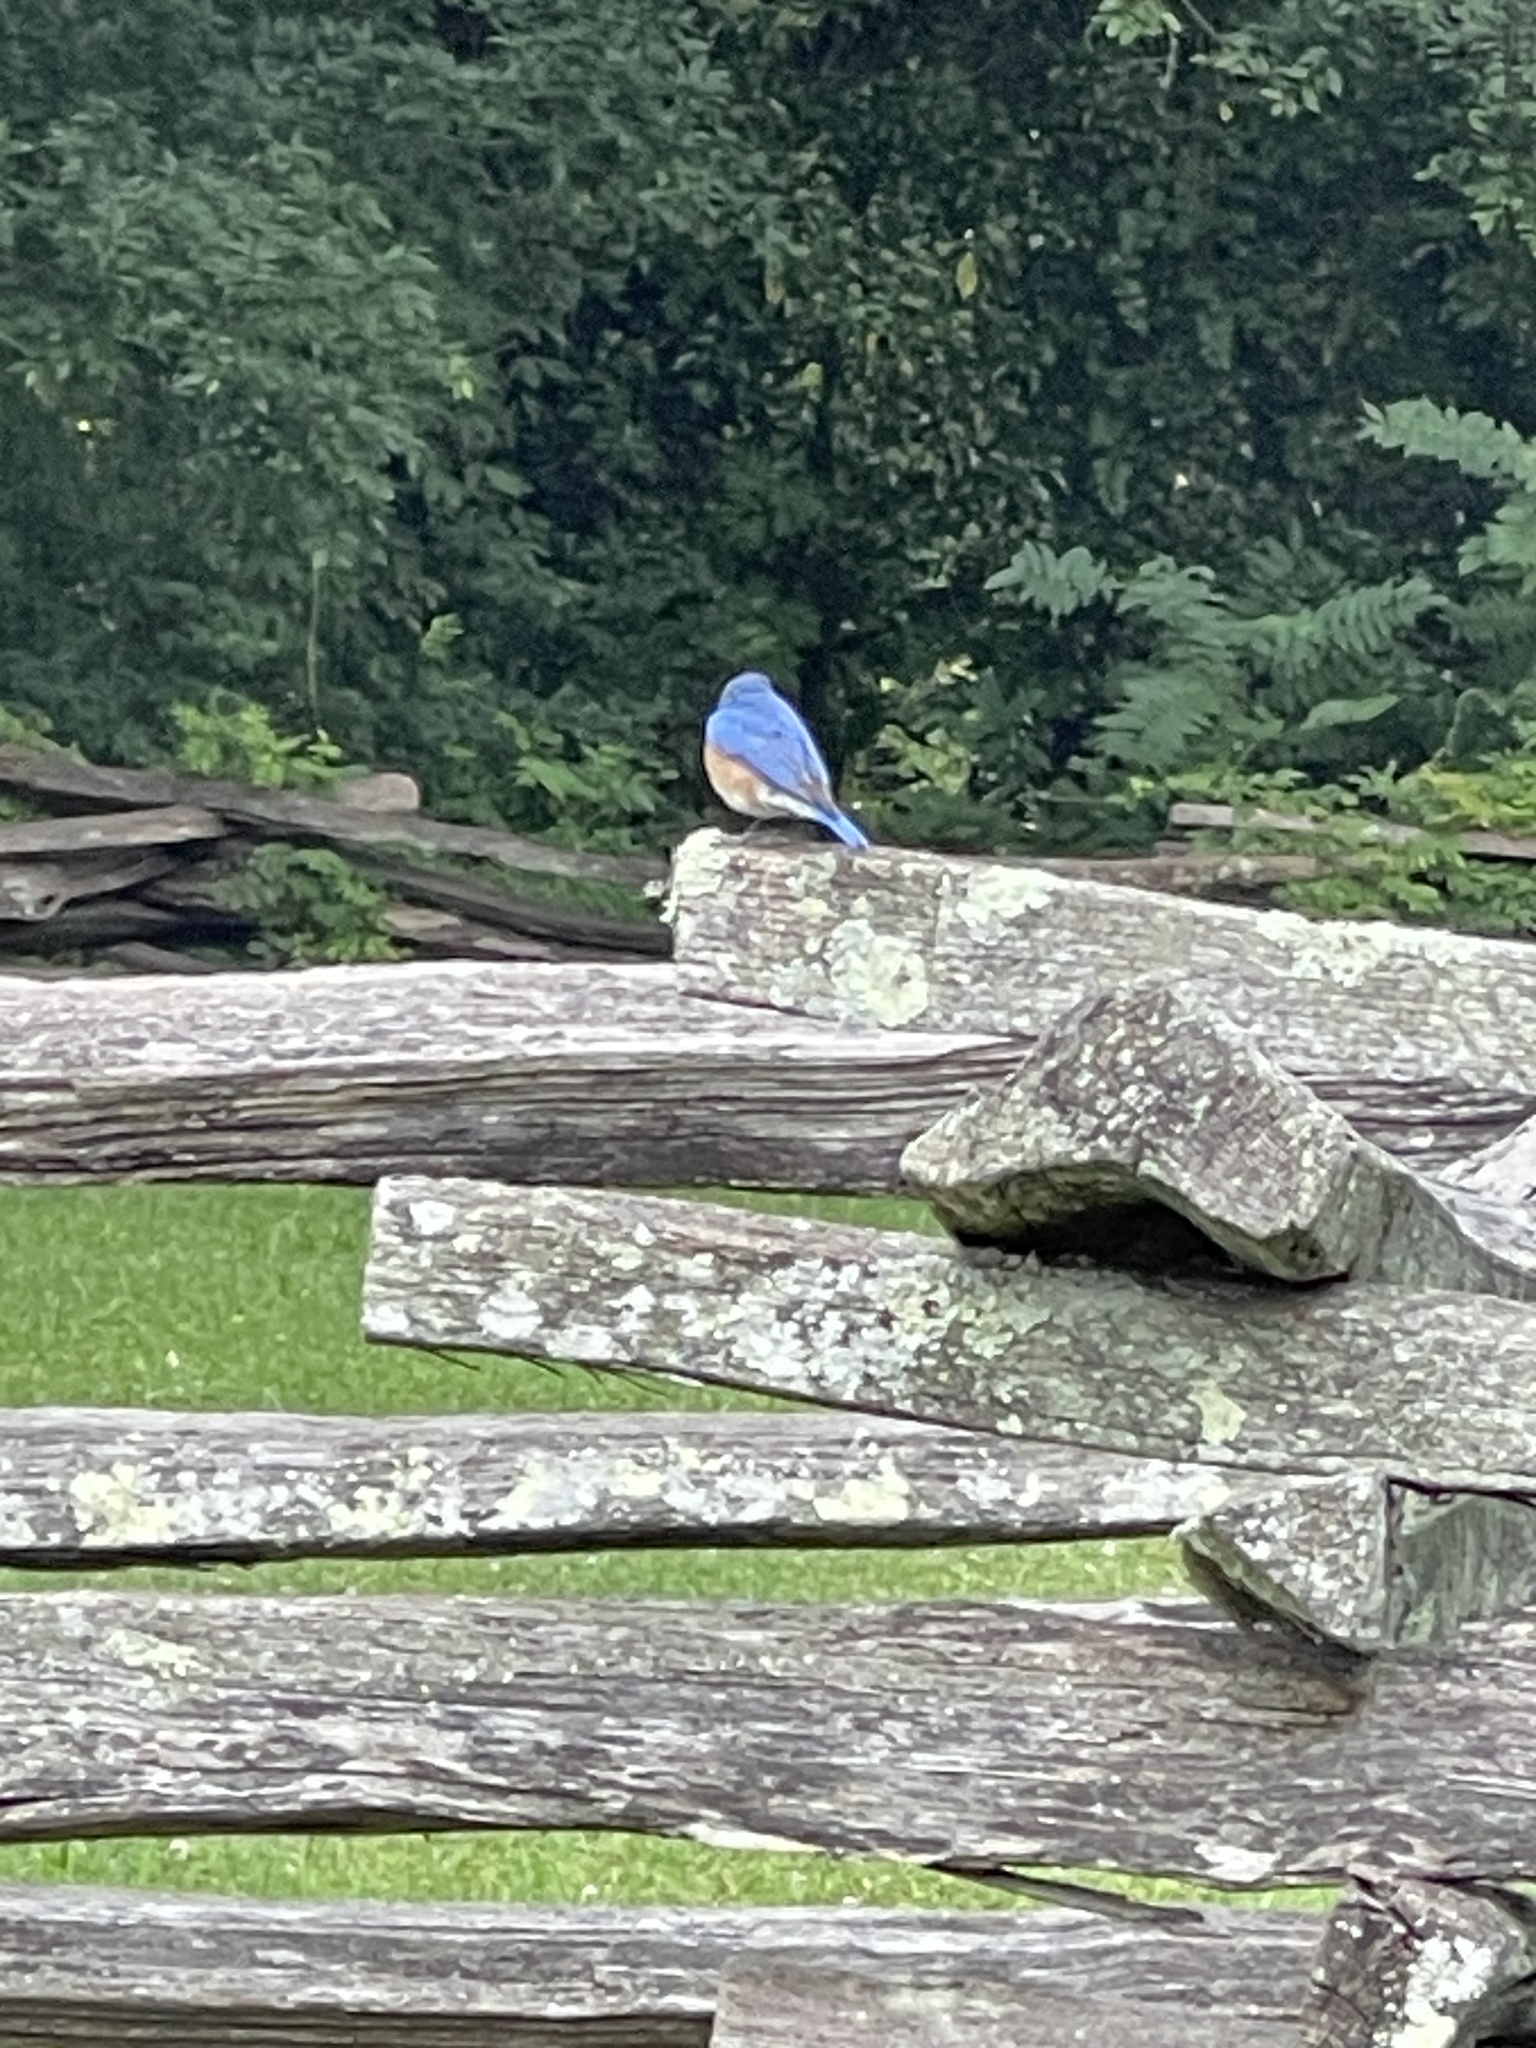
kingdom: Animalia
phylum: Chordata
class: Aves
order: Passeriformes
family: Turdidae
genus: Sialia
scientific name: Sialia sialis
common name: Eastern bluebird
